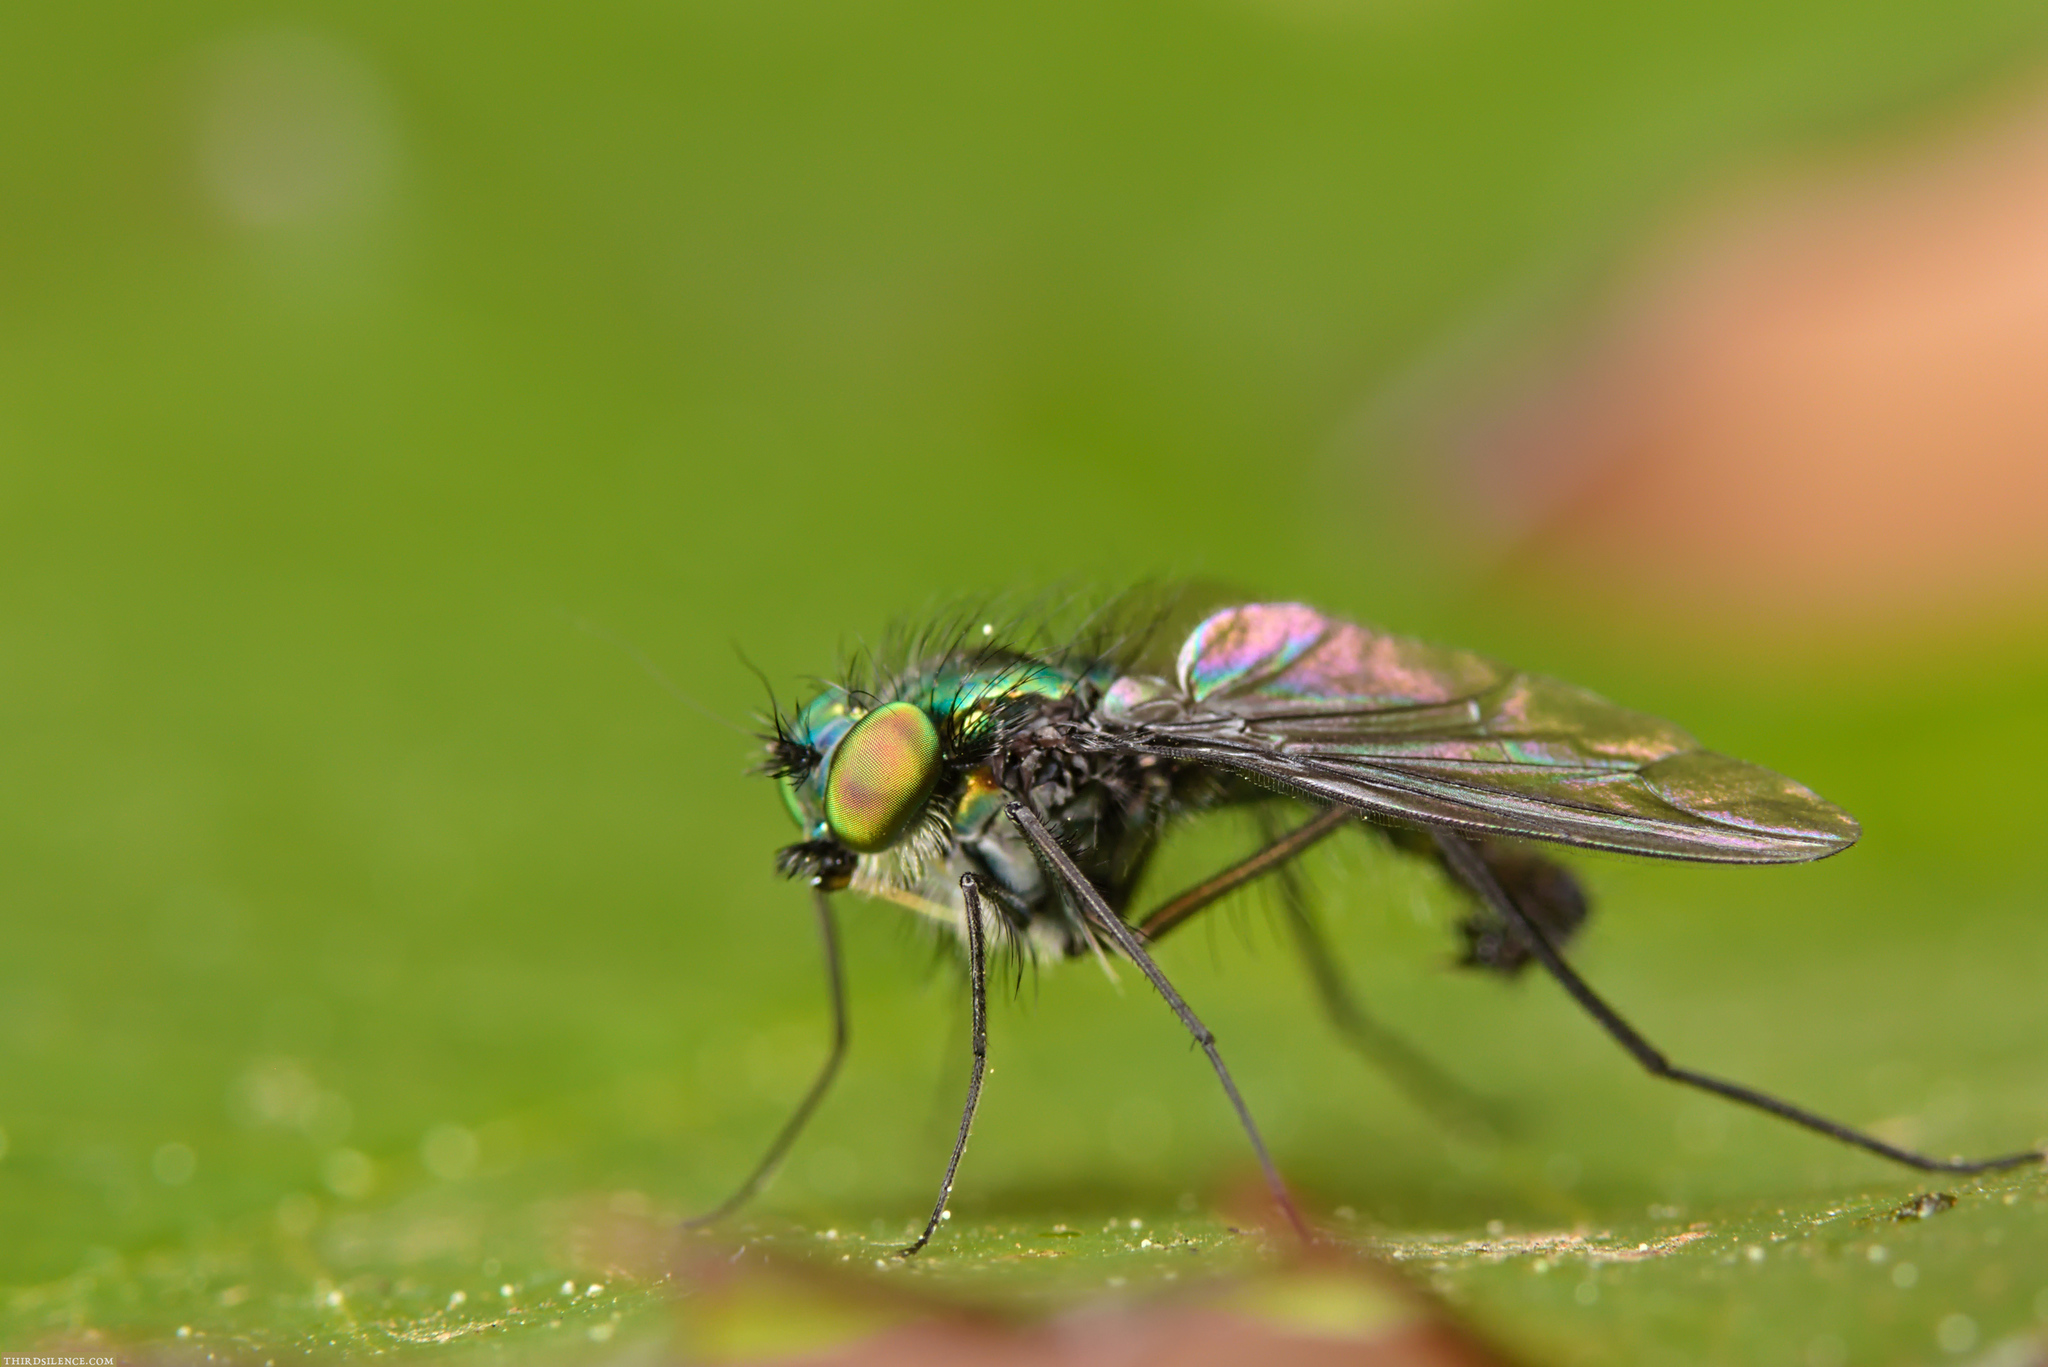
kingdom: Animalia
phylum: Arthropoda
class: Insecta
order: Diptera
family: Dolichopodidae
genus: Parentia
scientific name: Parentia nigropilosa
